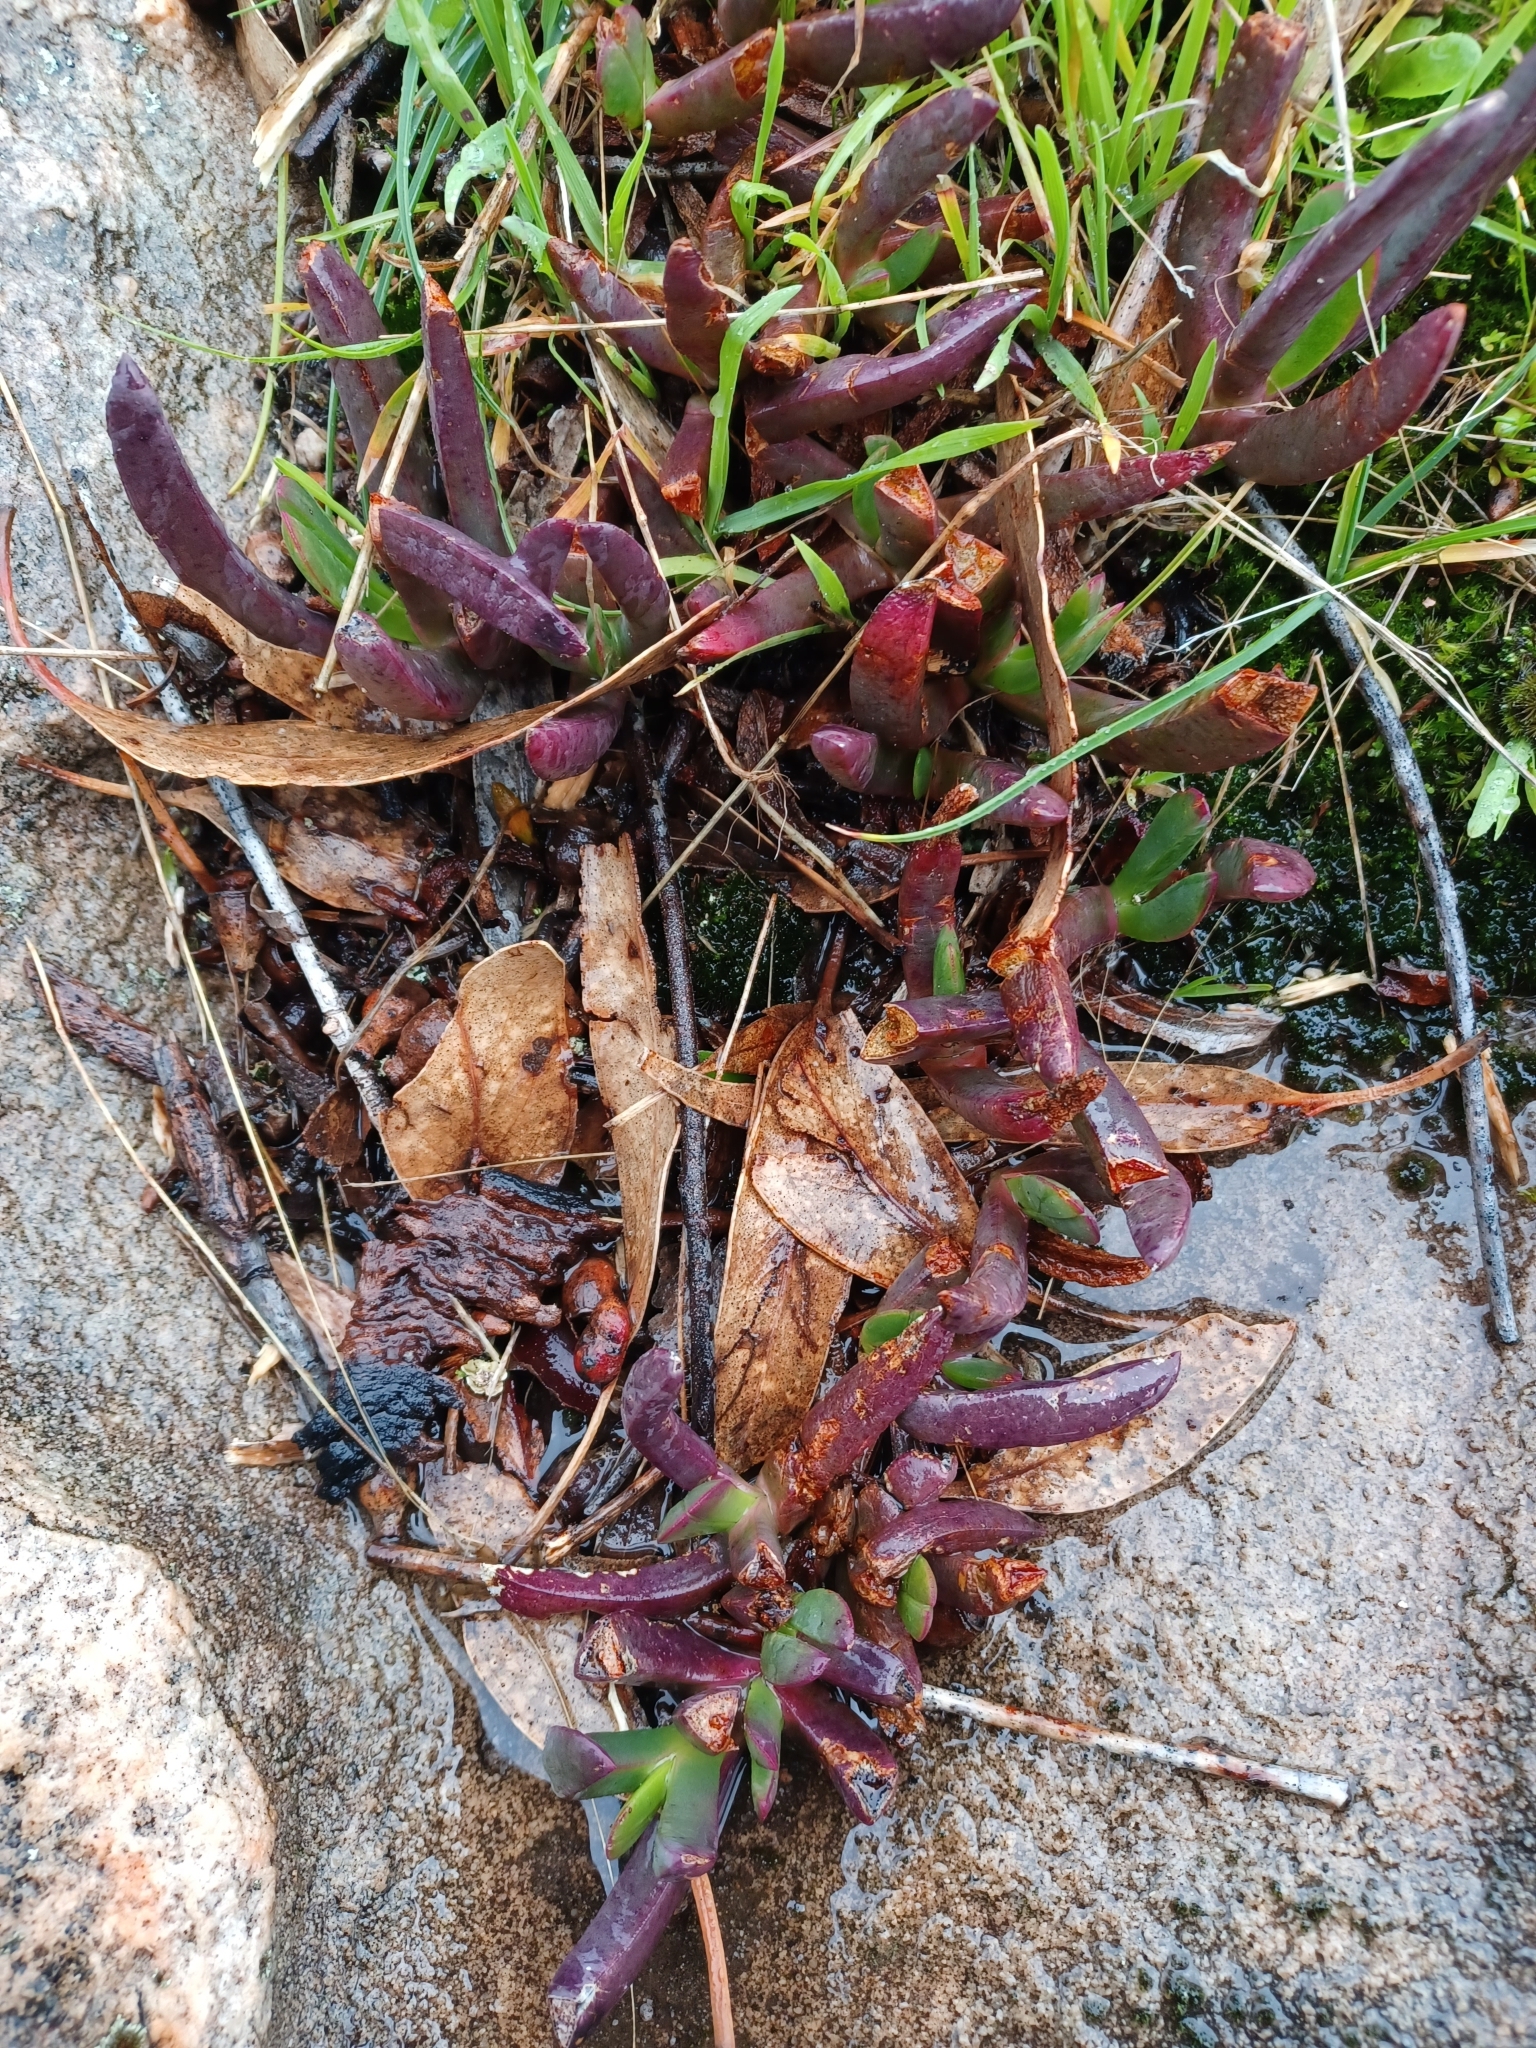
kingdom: Plantae
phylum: Tracheophyta
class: Magnoliopsida
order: Caryophyllales
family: Aizoaceae
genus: Carpobrotus
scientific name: Carpobrotus modestus
